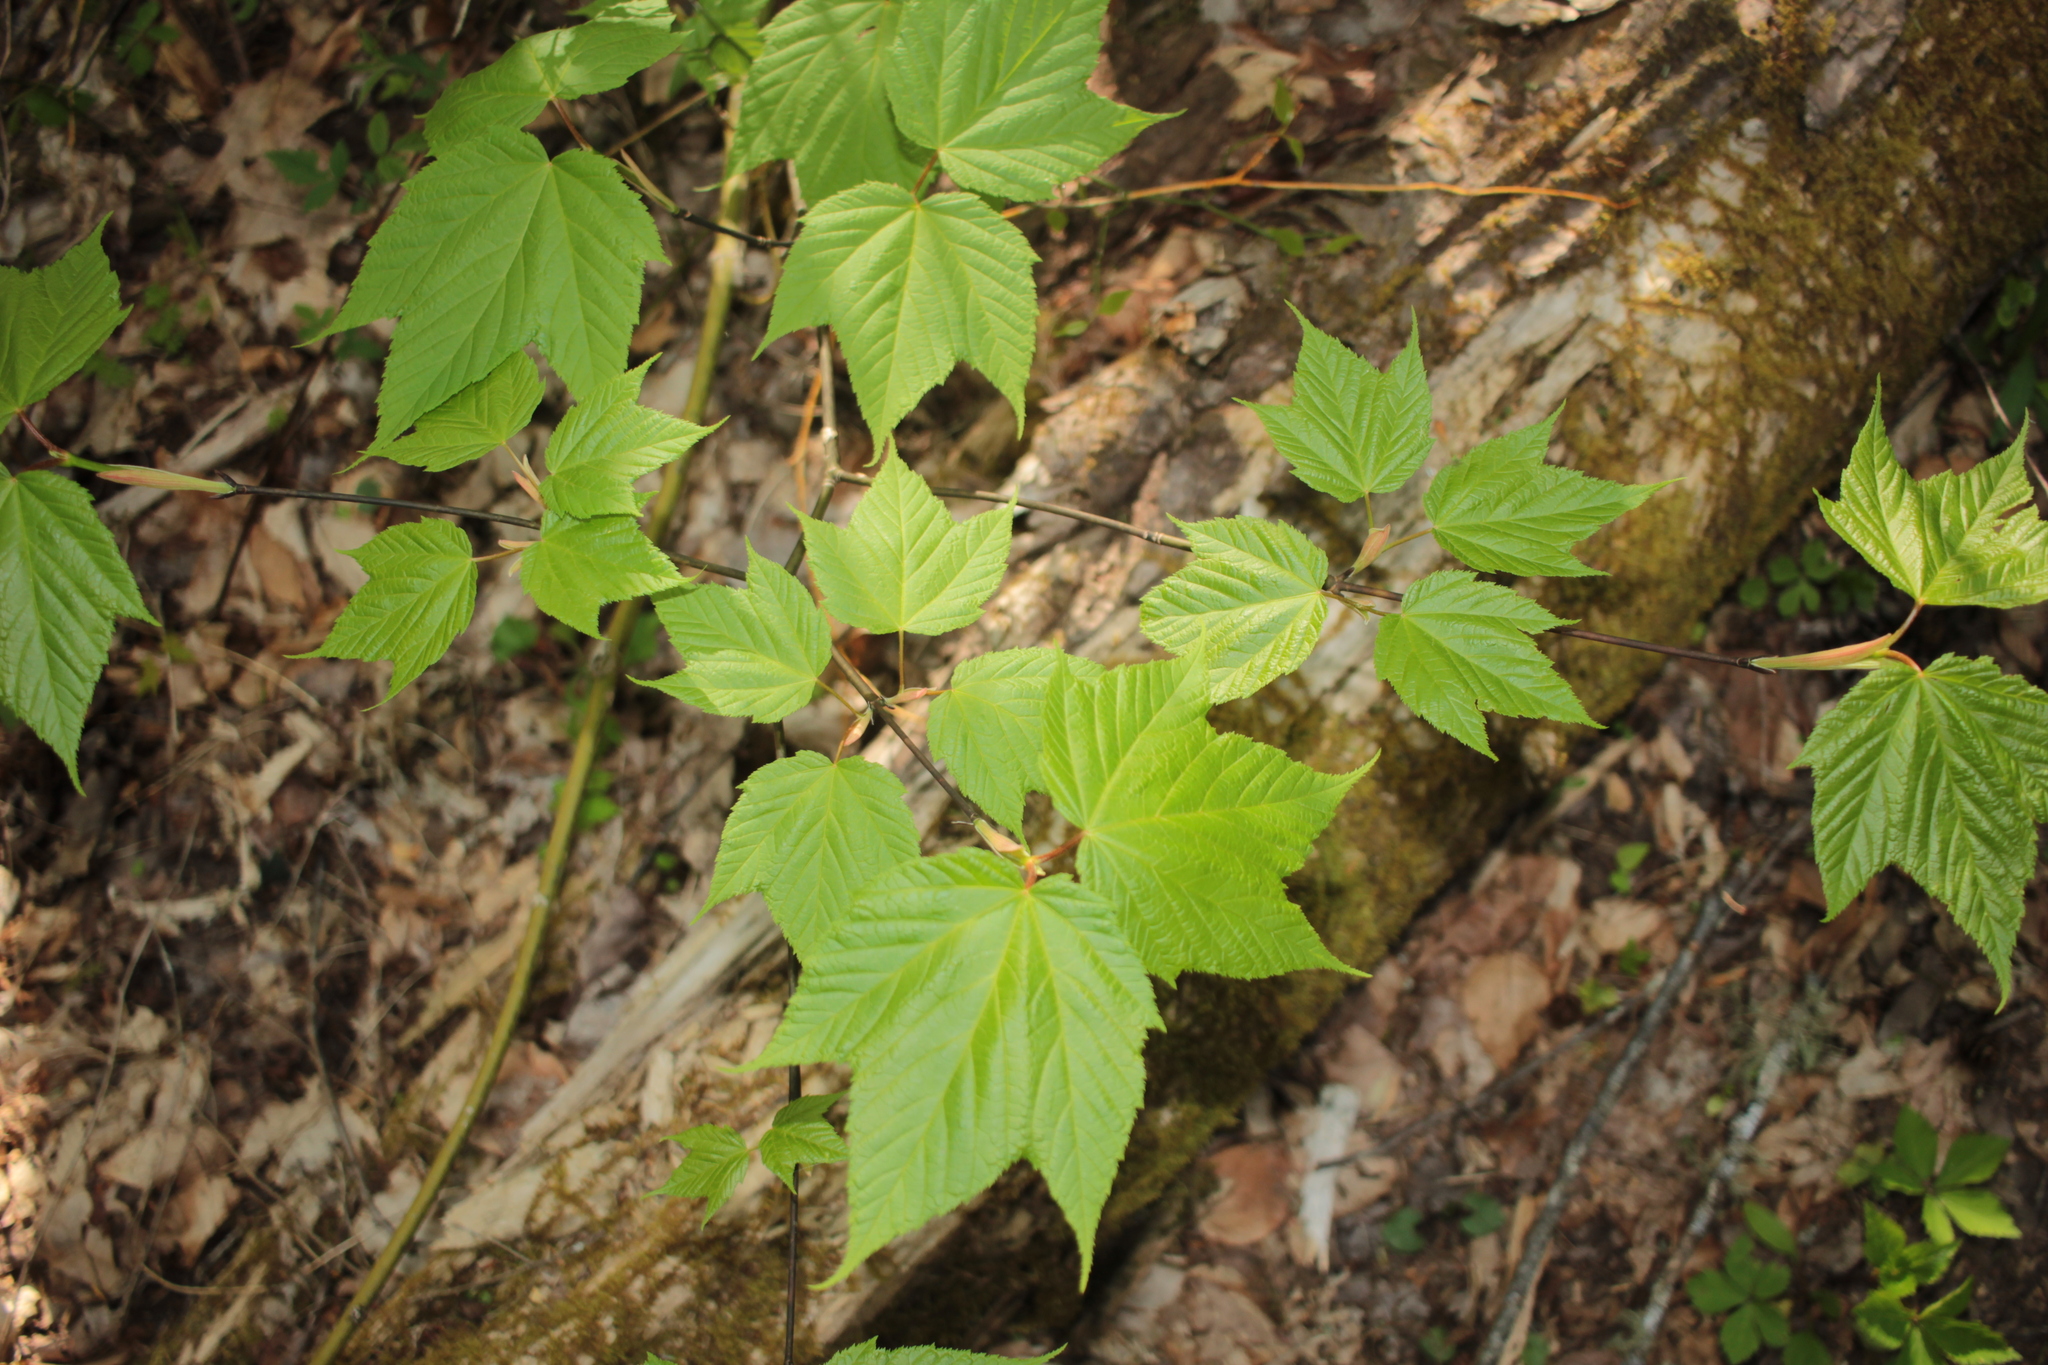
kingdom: Plantae
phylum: Tracheophyta
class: Magnoliopsida
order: Sapindales
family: Sapindaceae
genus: Acer
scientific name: Acer pensylvanicum
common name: Moosewood
